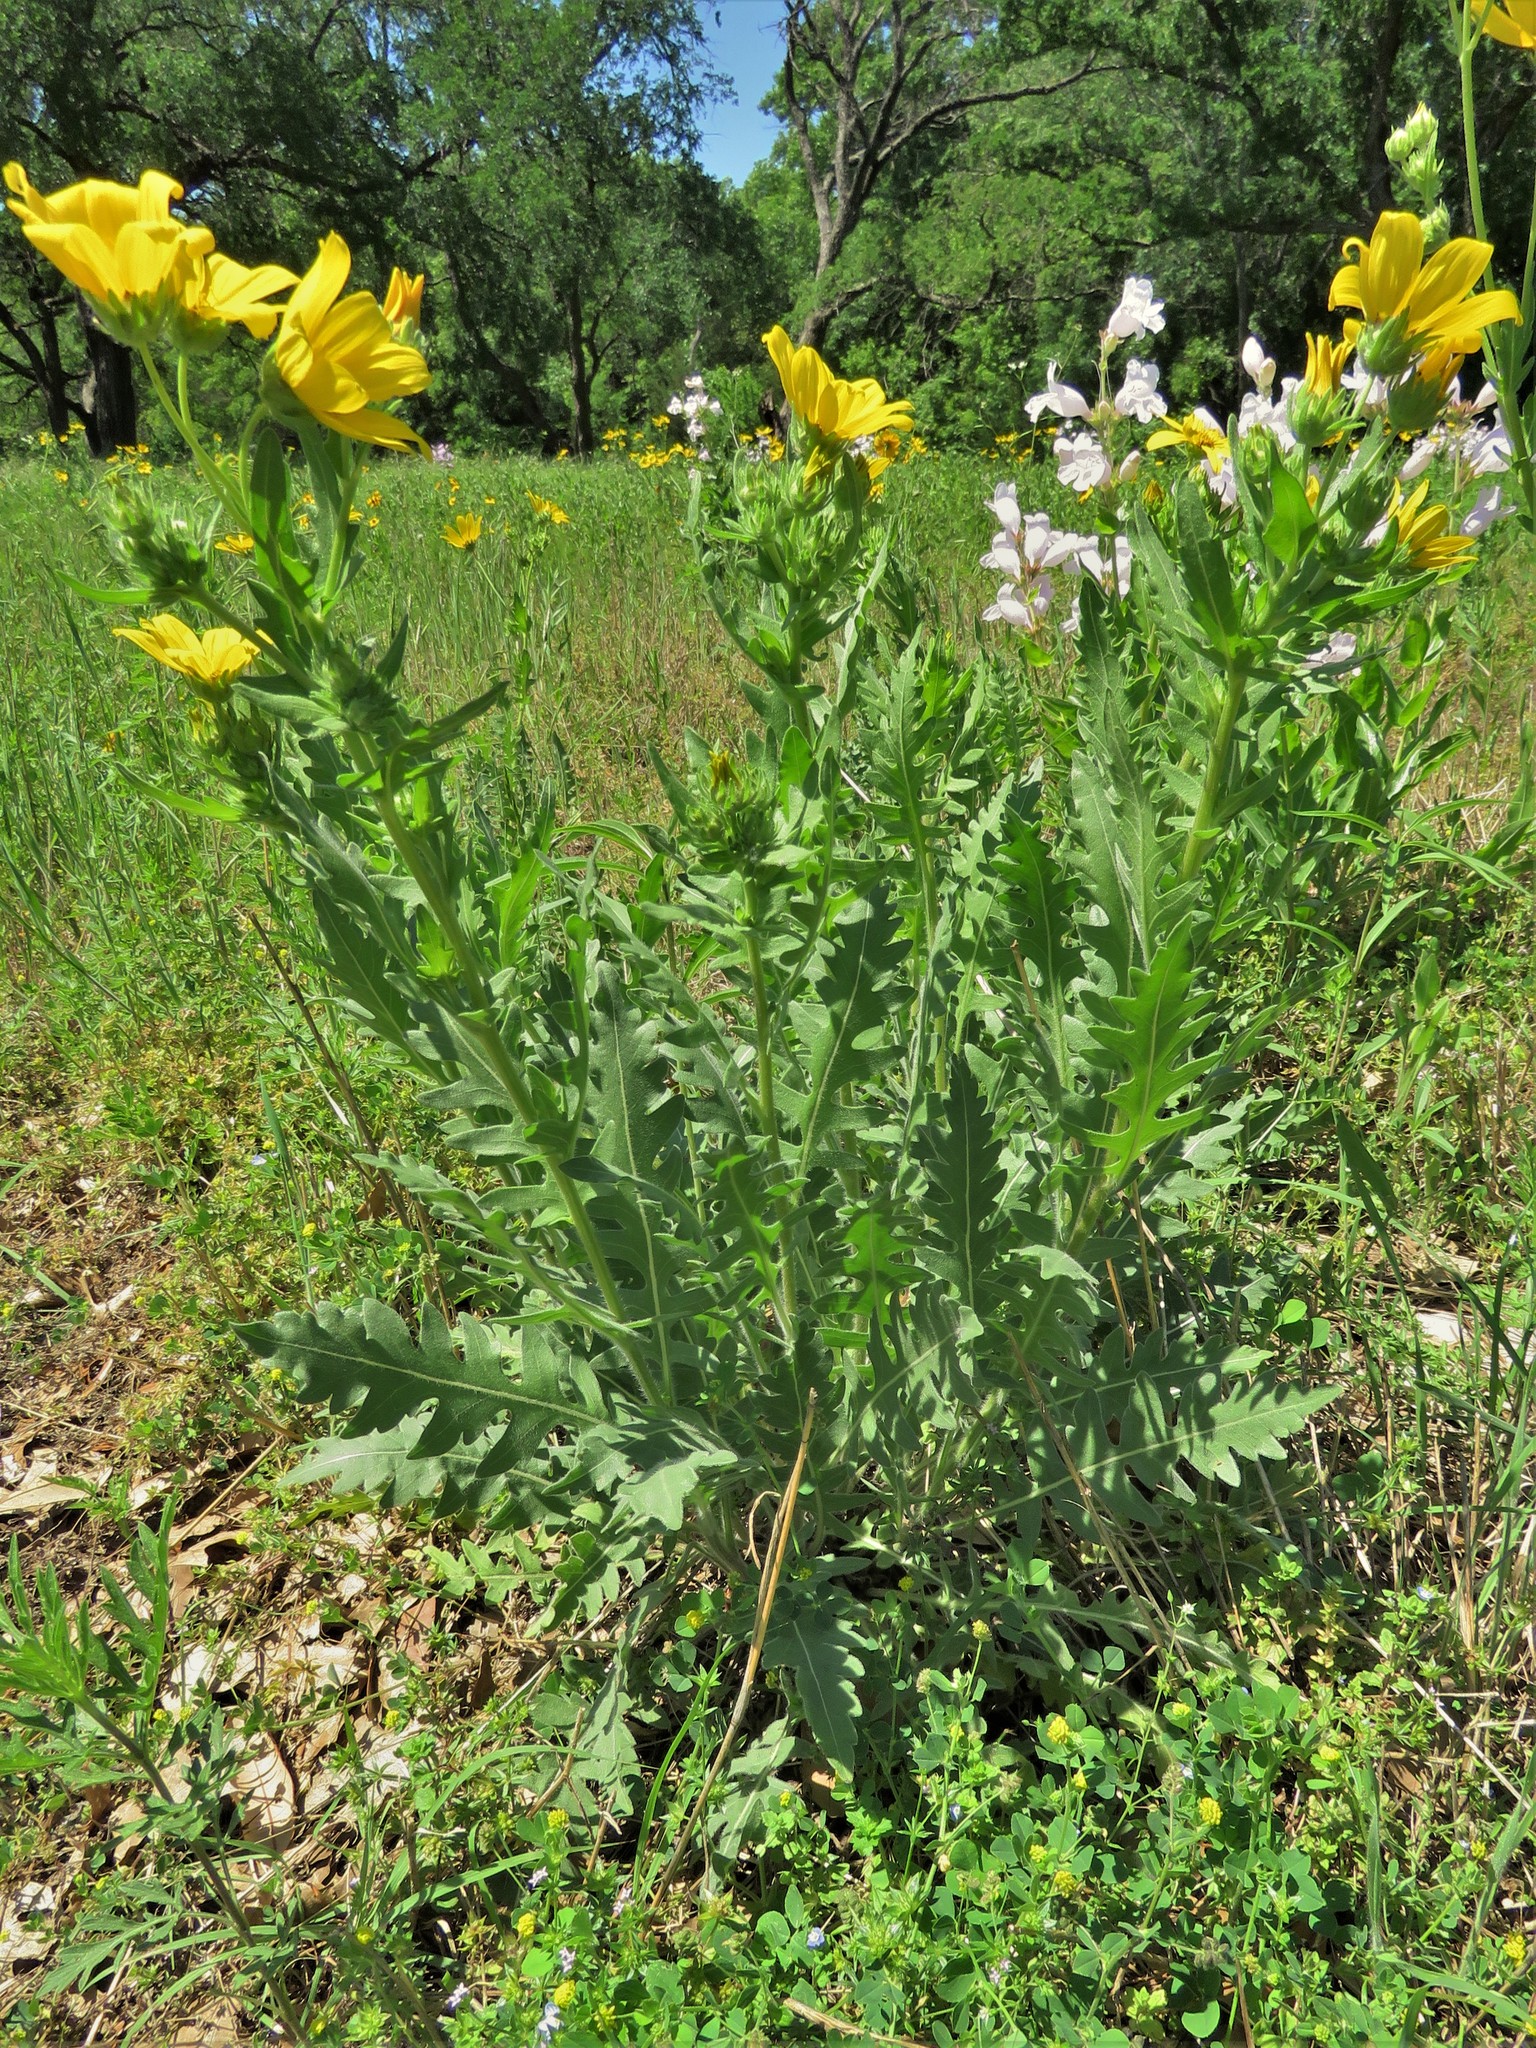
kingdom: Plantae
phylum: Tracheophyta
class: Magnoliopsida
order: Asterales
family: Asteraceae
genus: Engelmannia
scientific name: Engelmannia peristenia
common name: Engelmann's daisy
